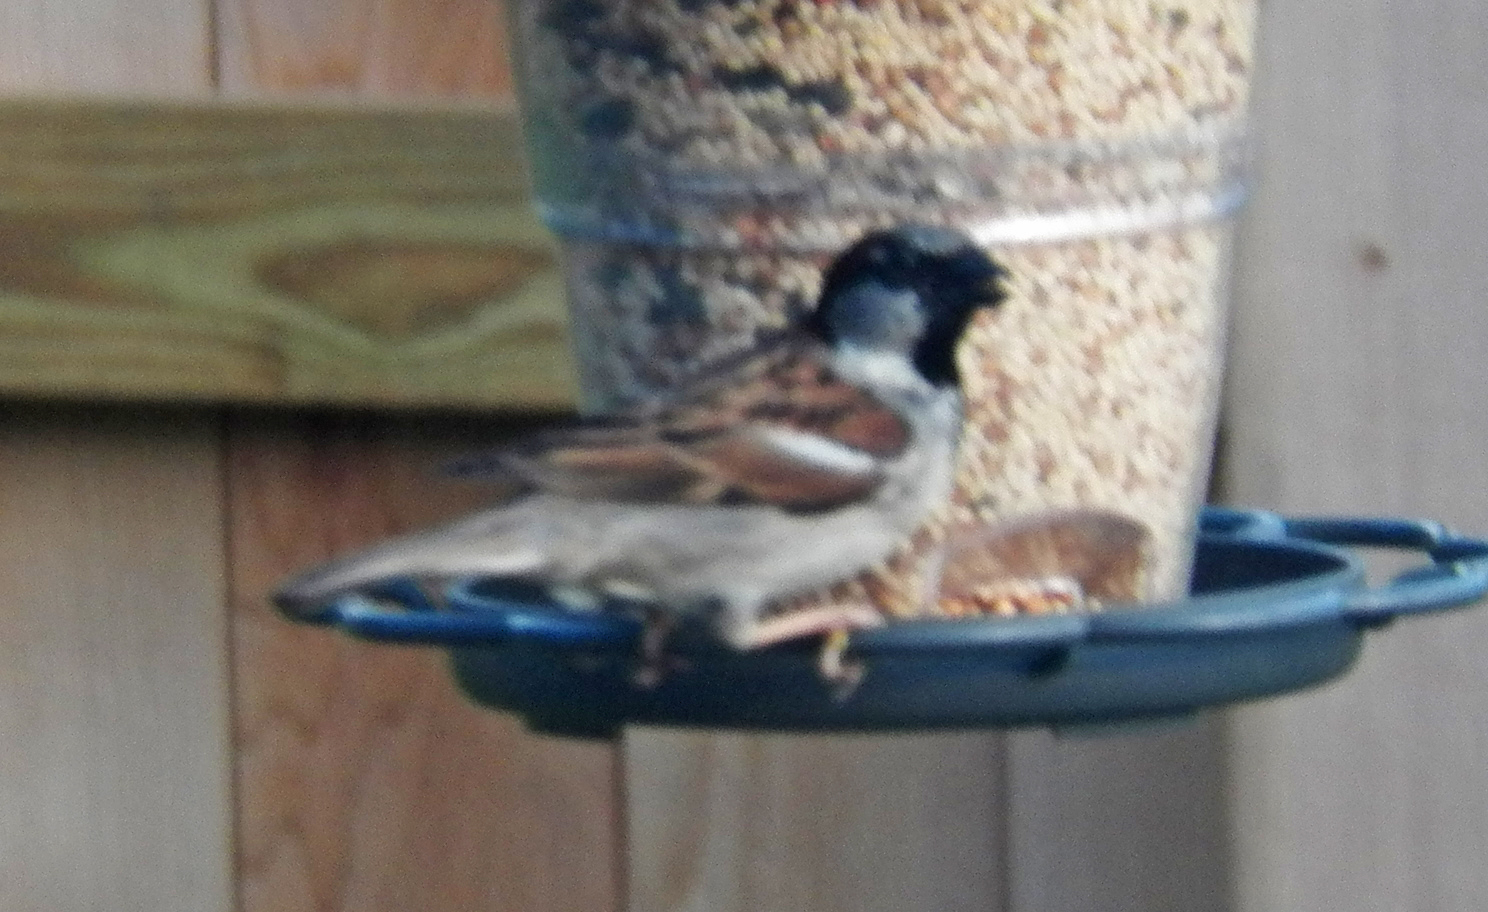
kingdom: Animalia
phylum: Chordata
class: Aves
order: Passeriformes
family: Passeridae
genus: Passer
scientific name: Passer domesticus
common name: House sparrow
